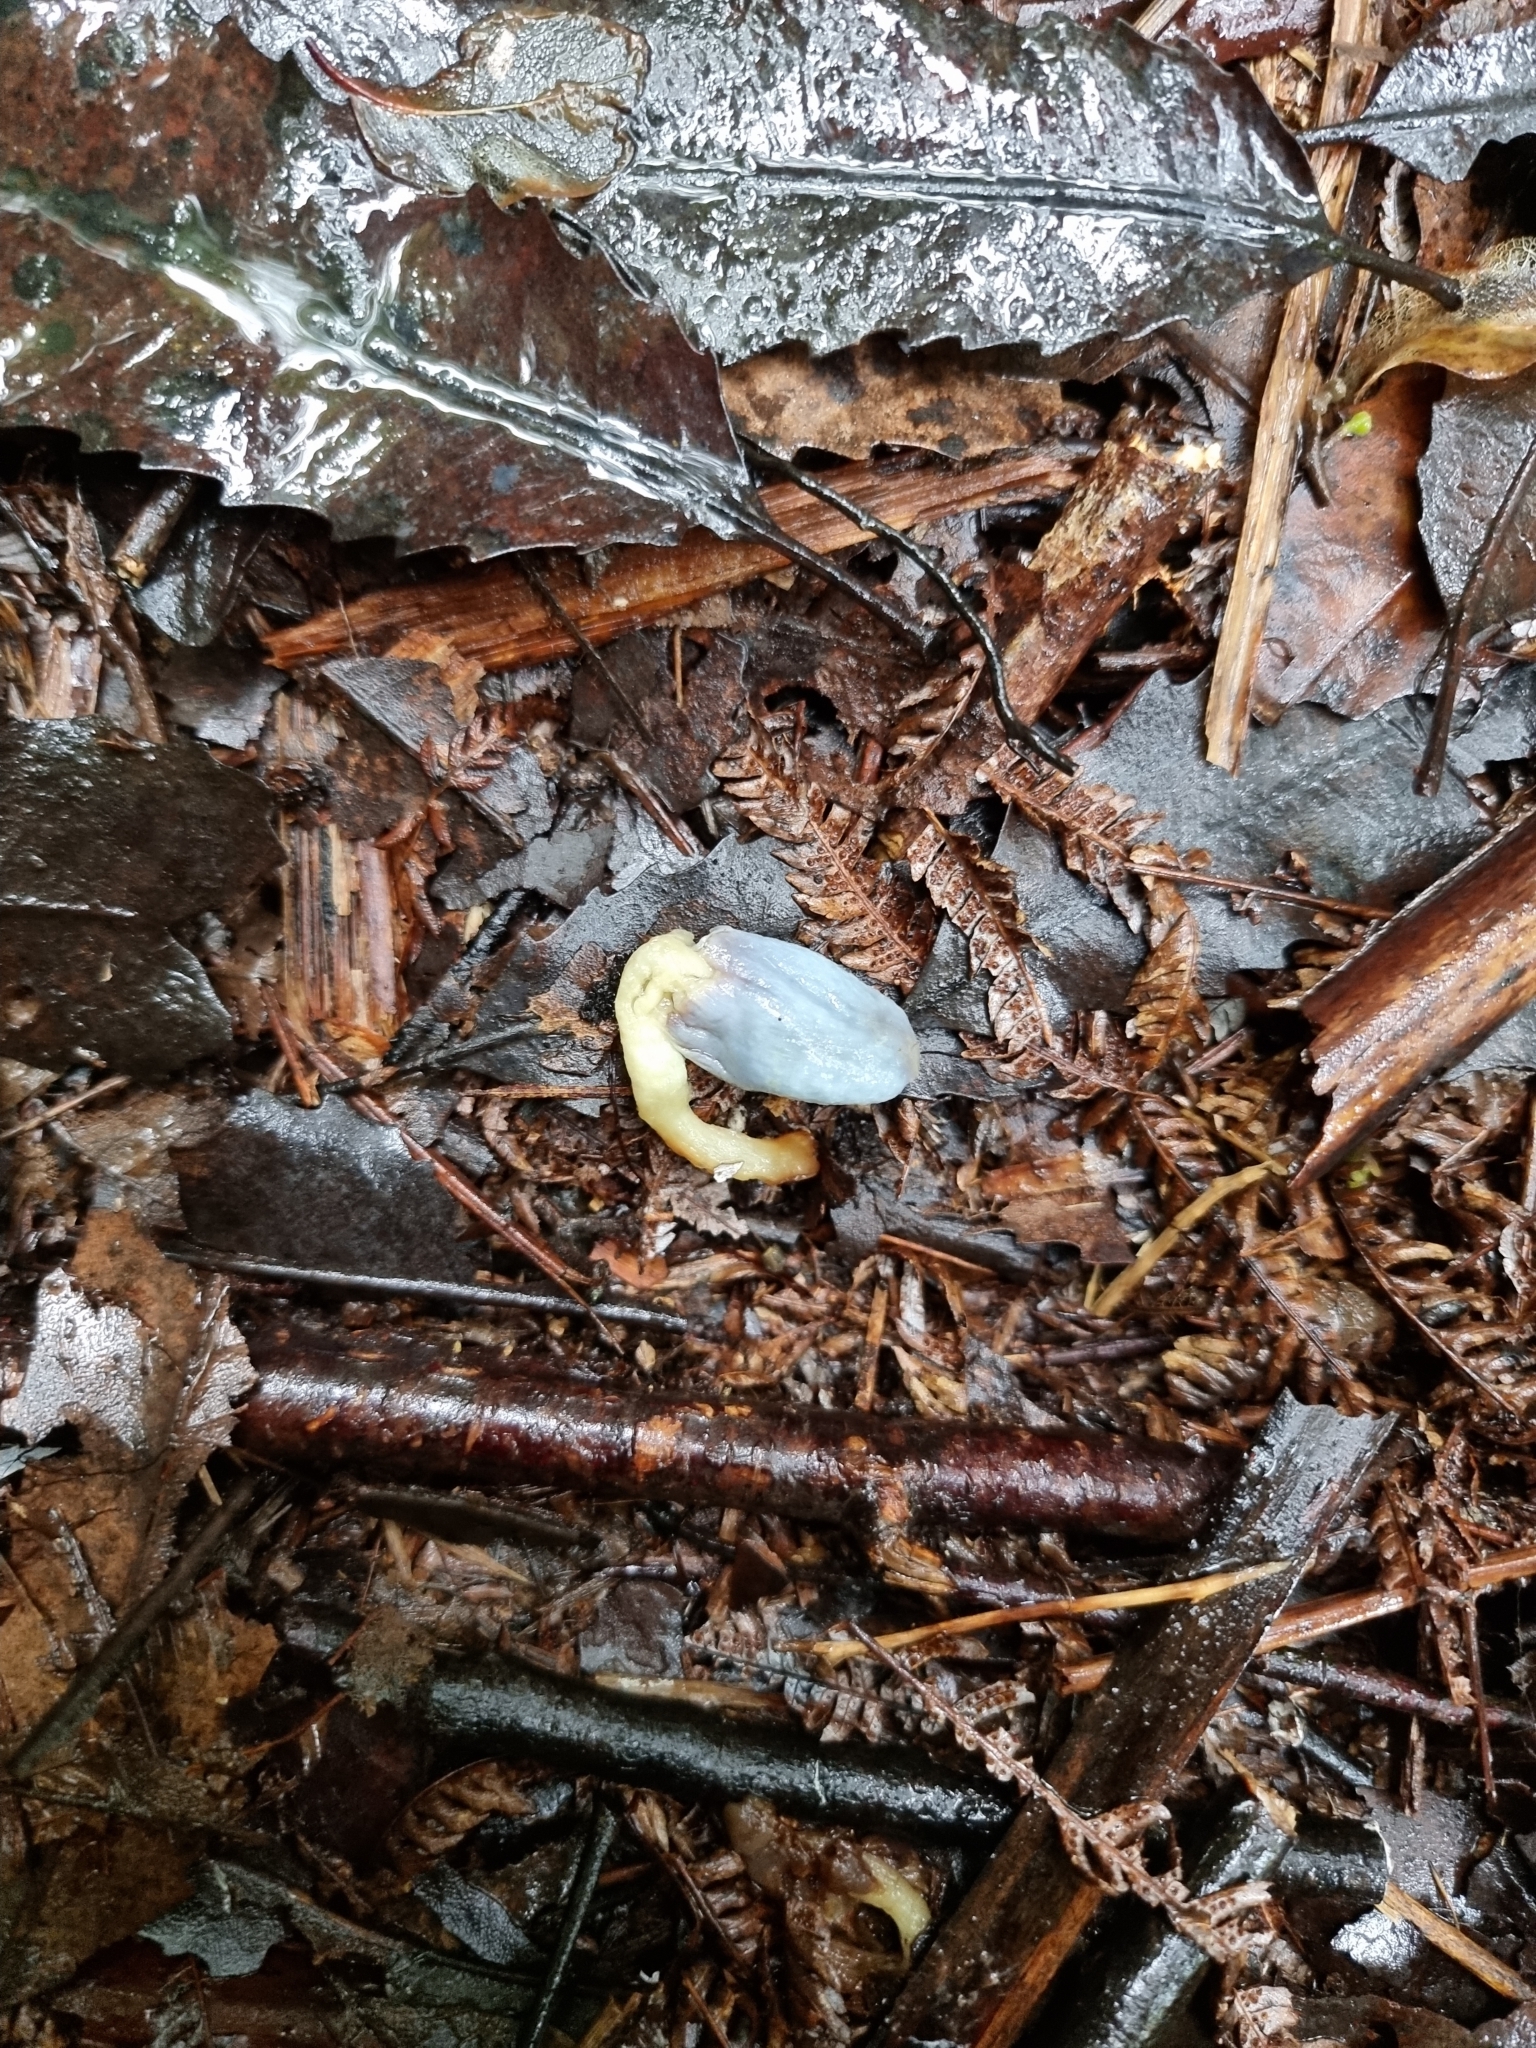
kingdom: Fungi
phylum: Basidiomycota
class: Agaricomycetes
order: Agaricales
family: Agaricaceae
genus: Clavogaster
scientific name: Clavogaster virescens
